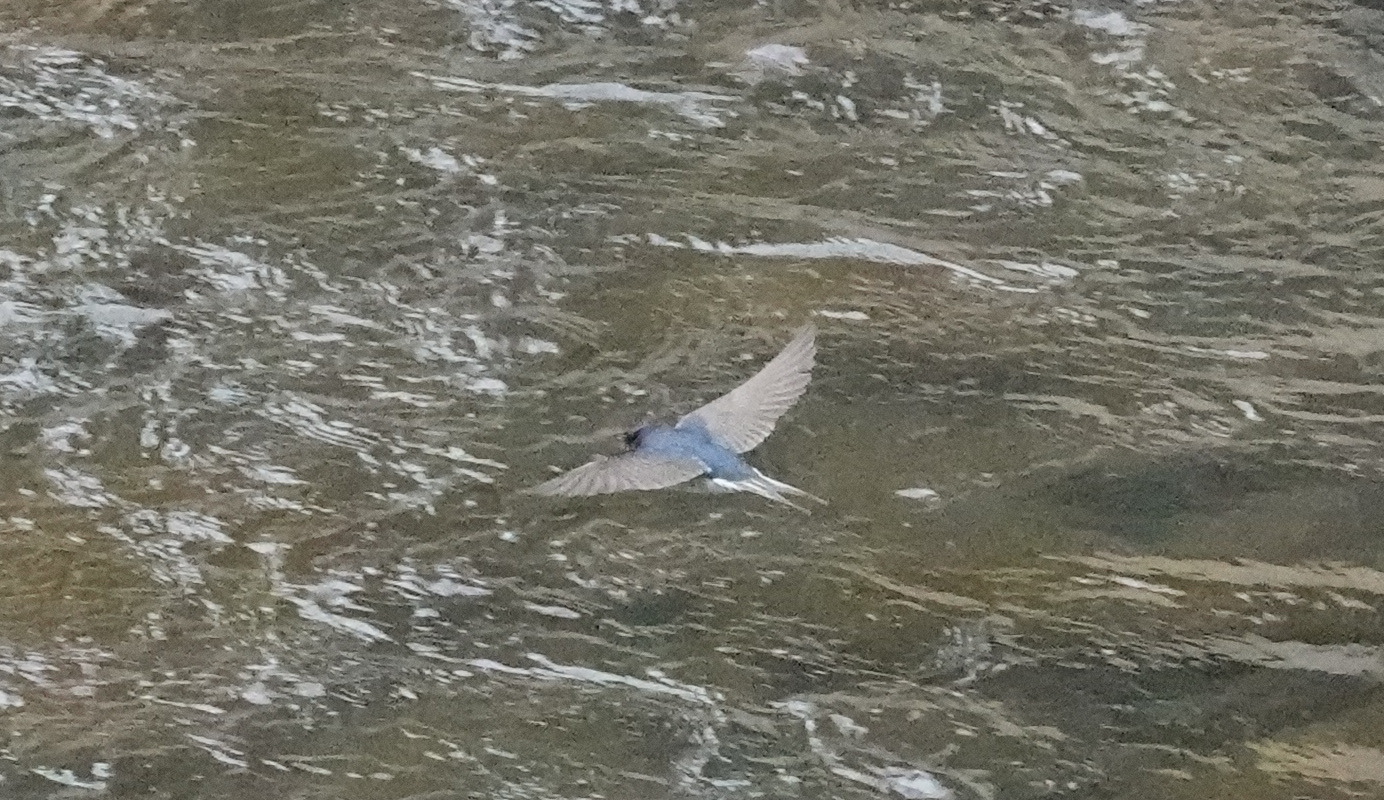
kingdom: Animalia
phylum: Chordata
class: Aves
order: Passeriformes
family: Hirundinidae
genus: Hirundo
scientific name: Hirundo neoxena
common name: Welcome swallow
